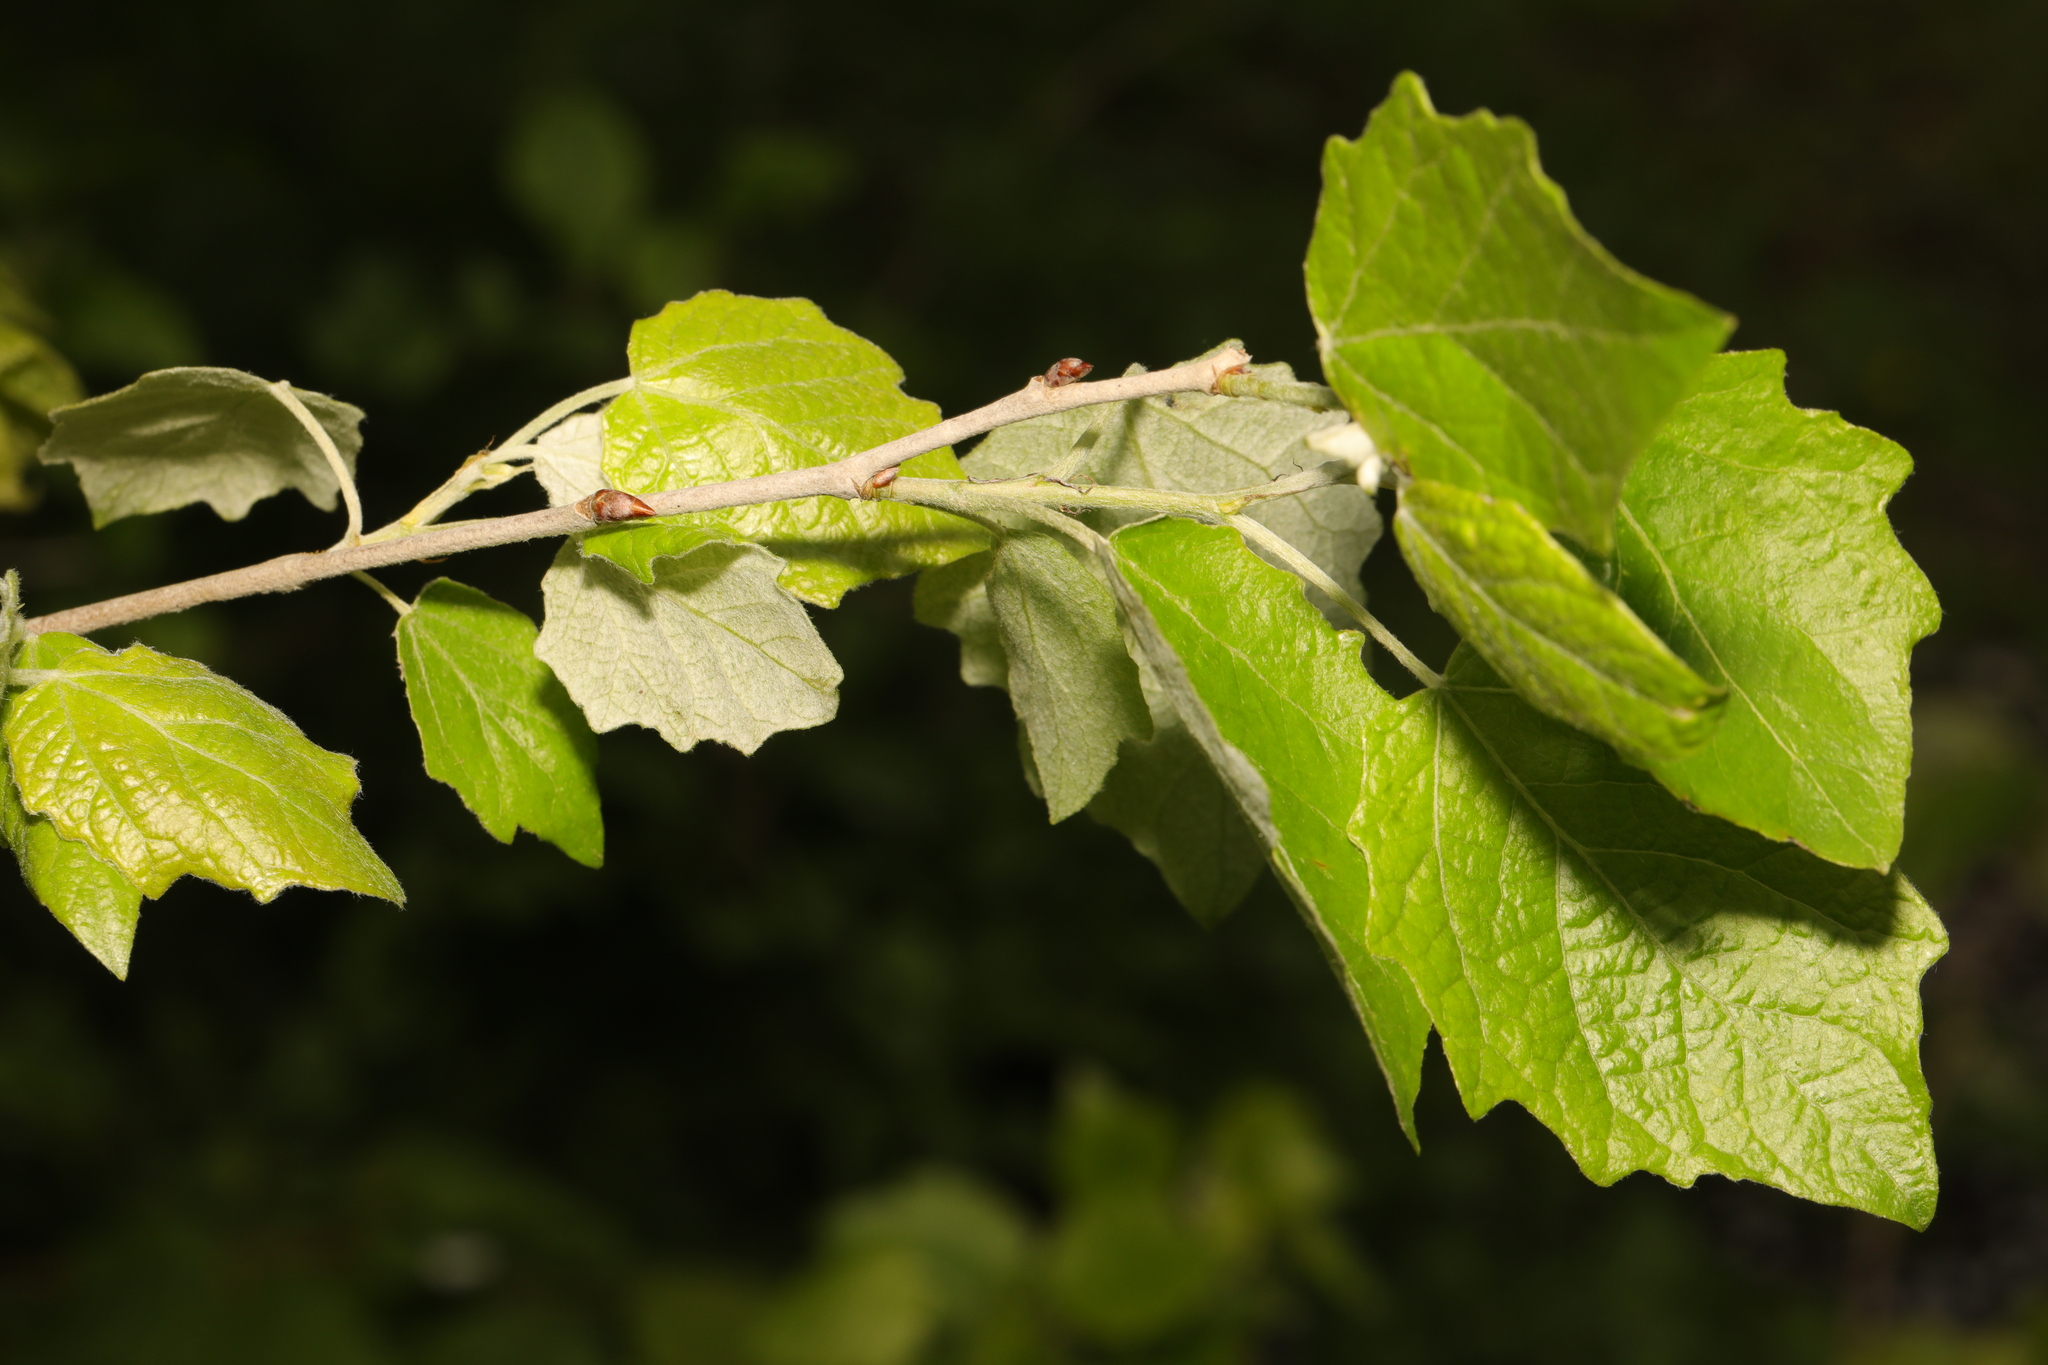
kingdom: Plantae
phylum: Tracheophyta
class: Magnoliopsida
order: Malpighiales
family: Salicaceae
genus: Populus
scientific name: Populus alba
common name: White poplar
